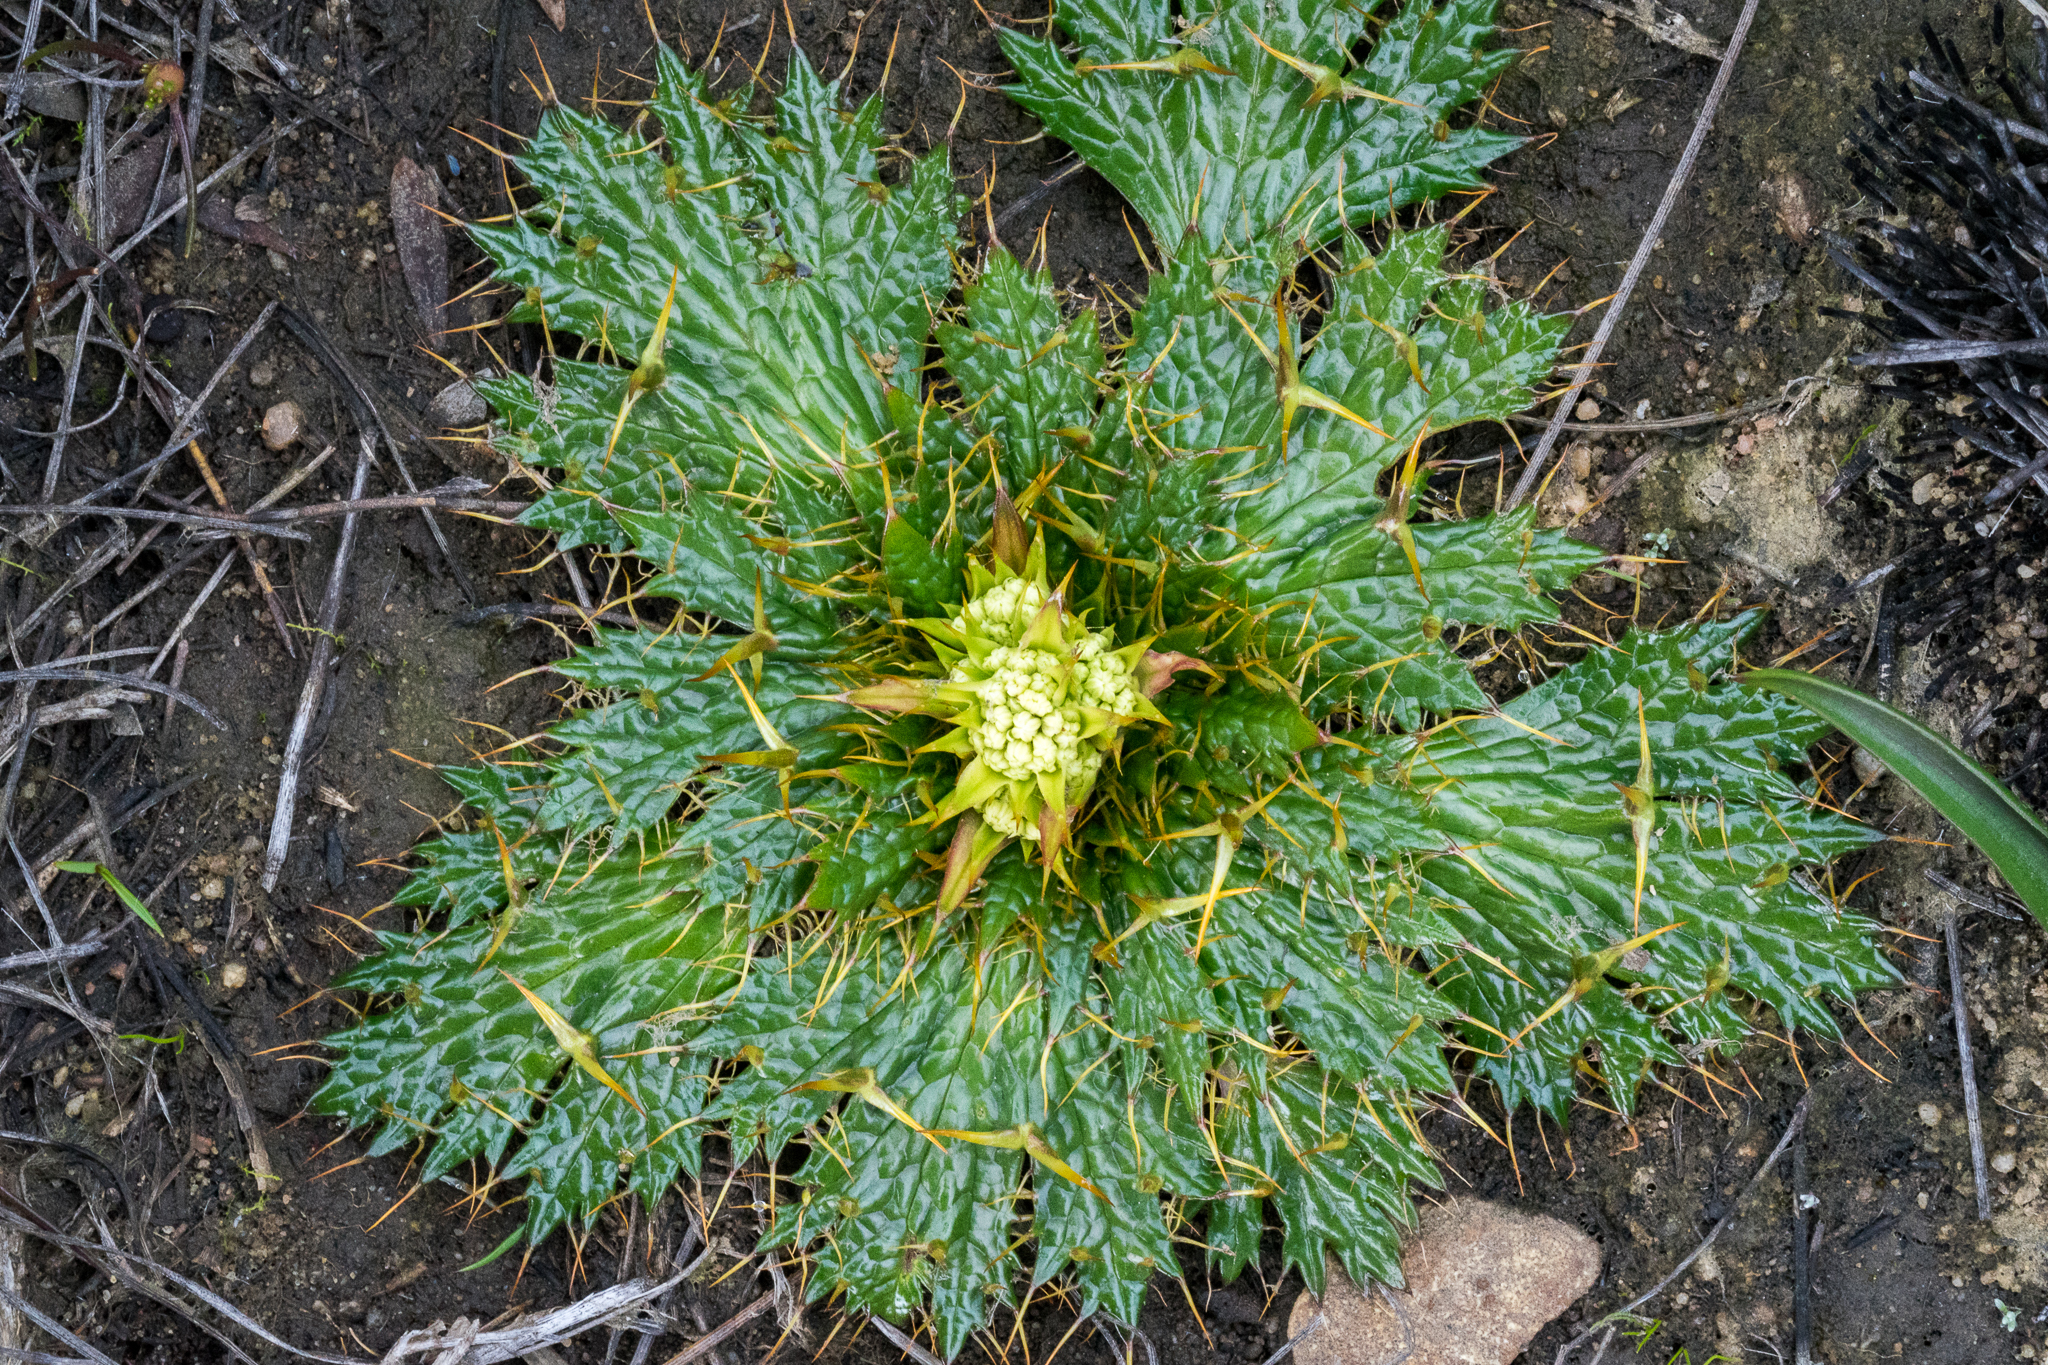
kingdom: Plantae
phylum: Tracheophyta
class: Magnoliopsida
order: Apiales
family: Apiaceae
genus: Arctopus
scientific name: Arctopus echinatus
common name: Platdoring
